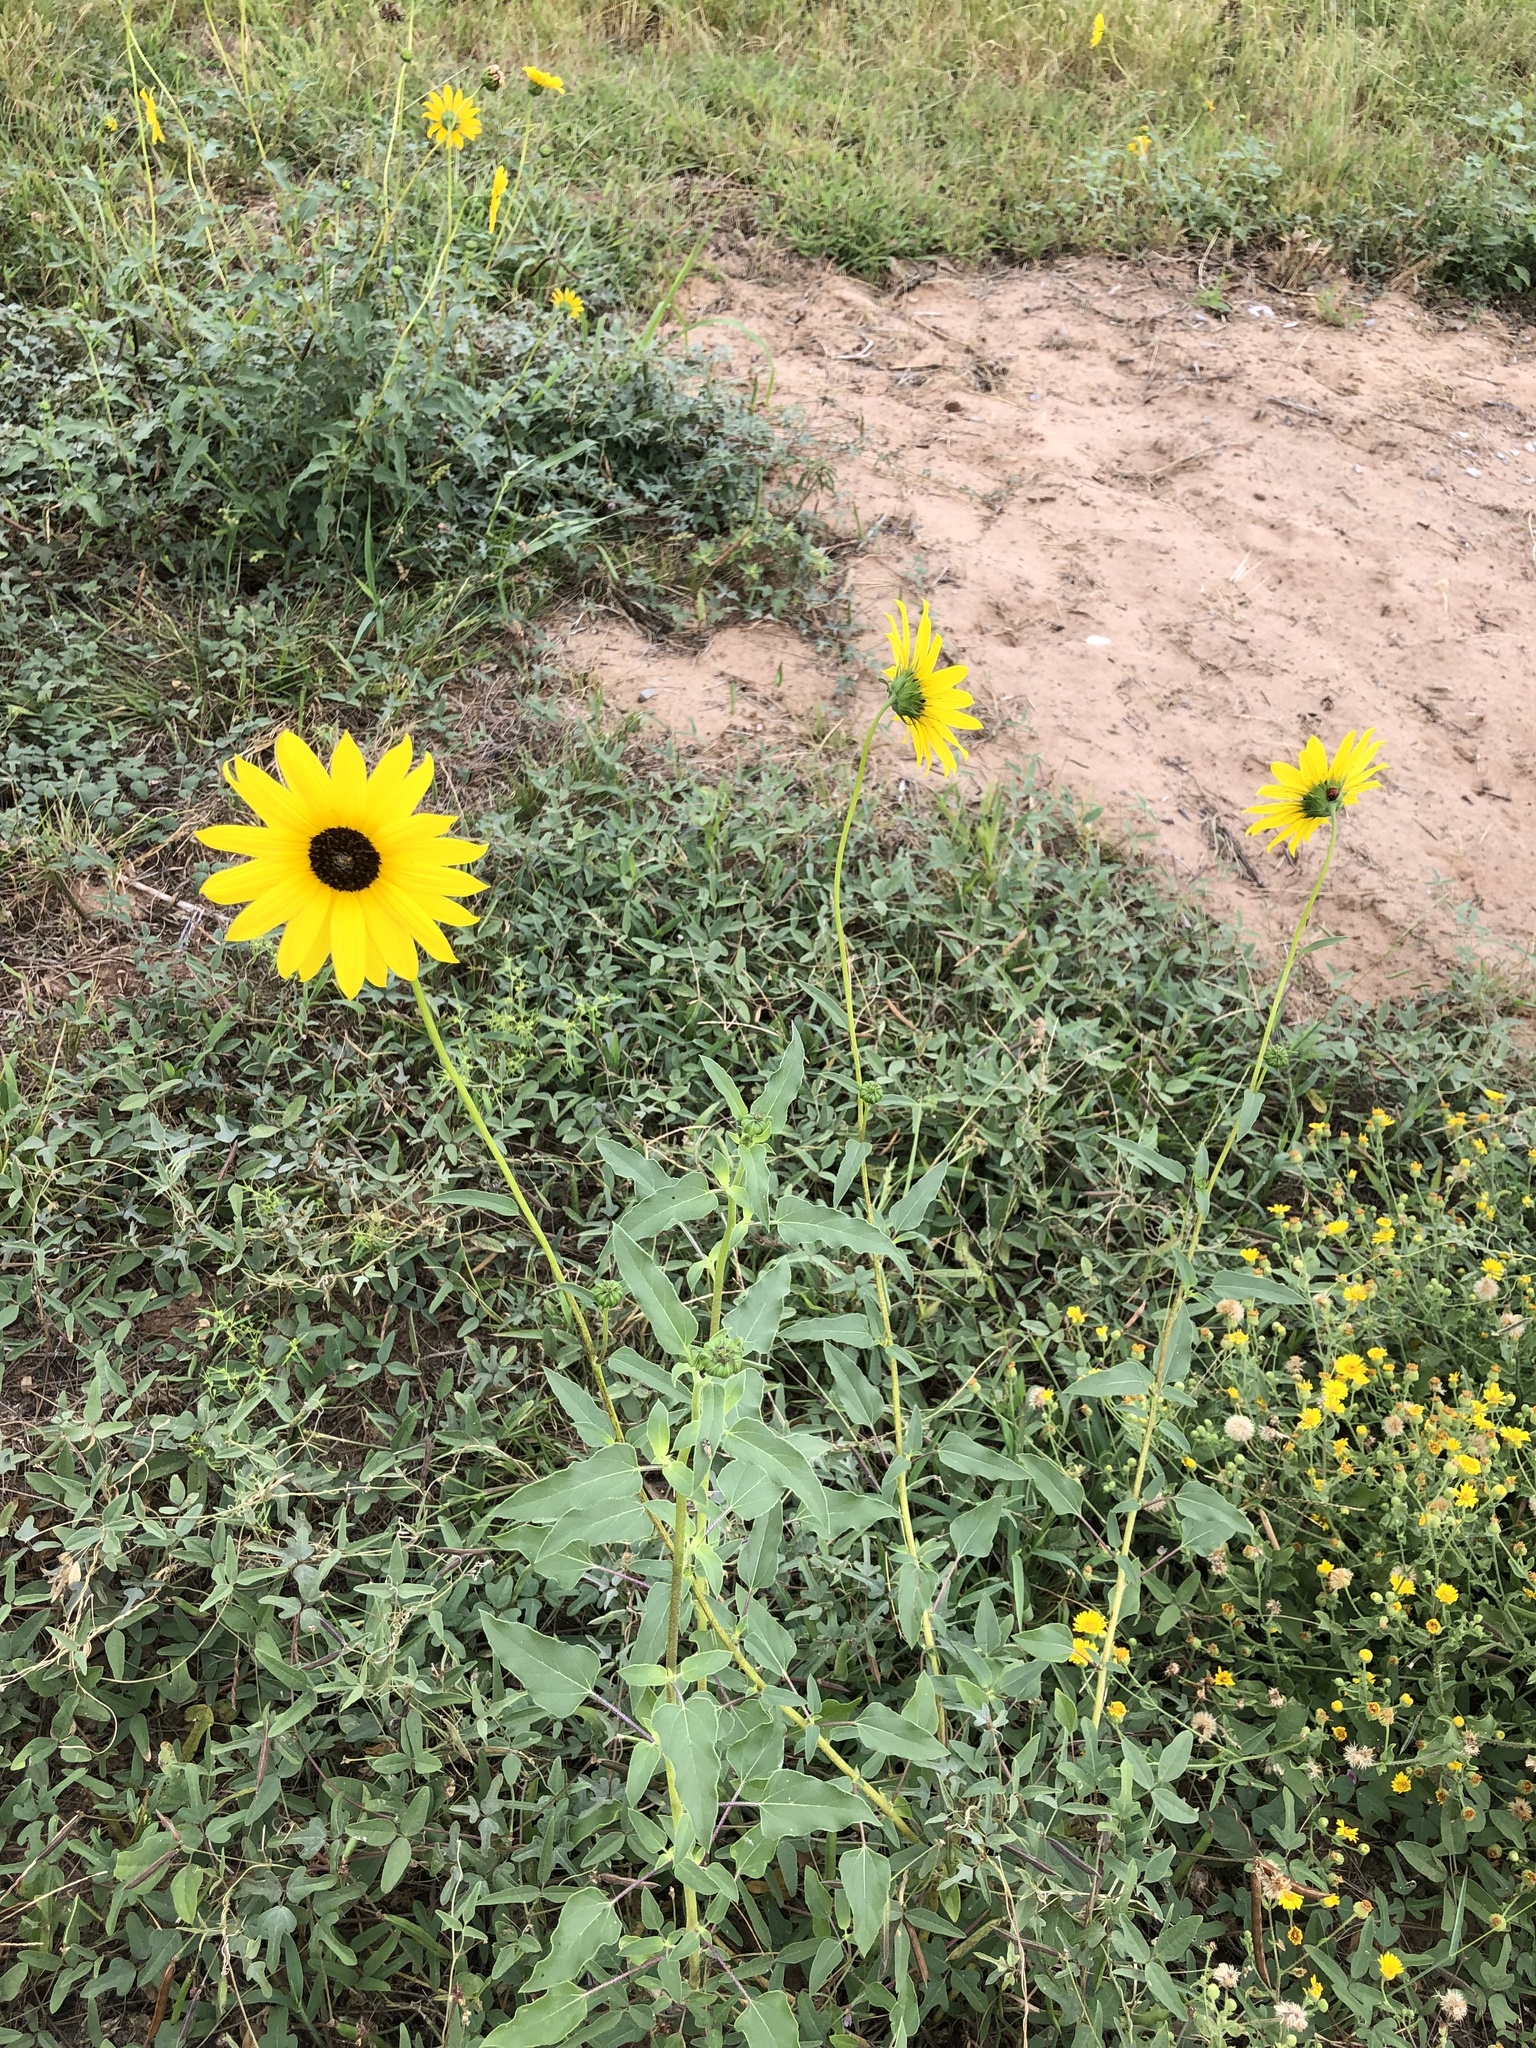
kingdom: Plantae
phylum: Tracheophyta
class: Magnoliopsida
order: Asterales
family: Asteraceae
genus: Helianthus
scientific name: Helianthus petiolaris
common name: Lesser sunflower
